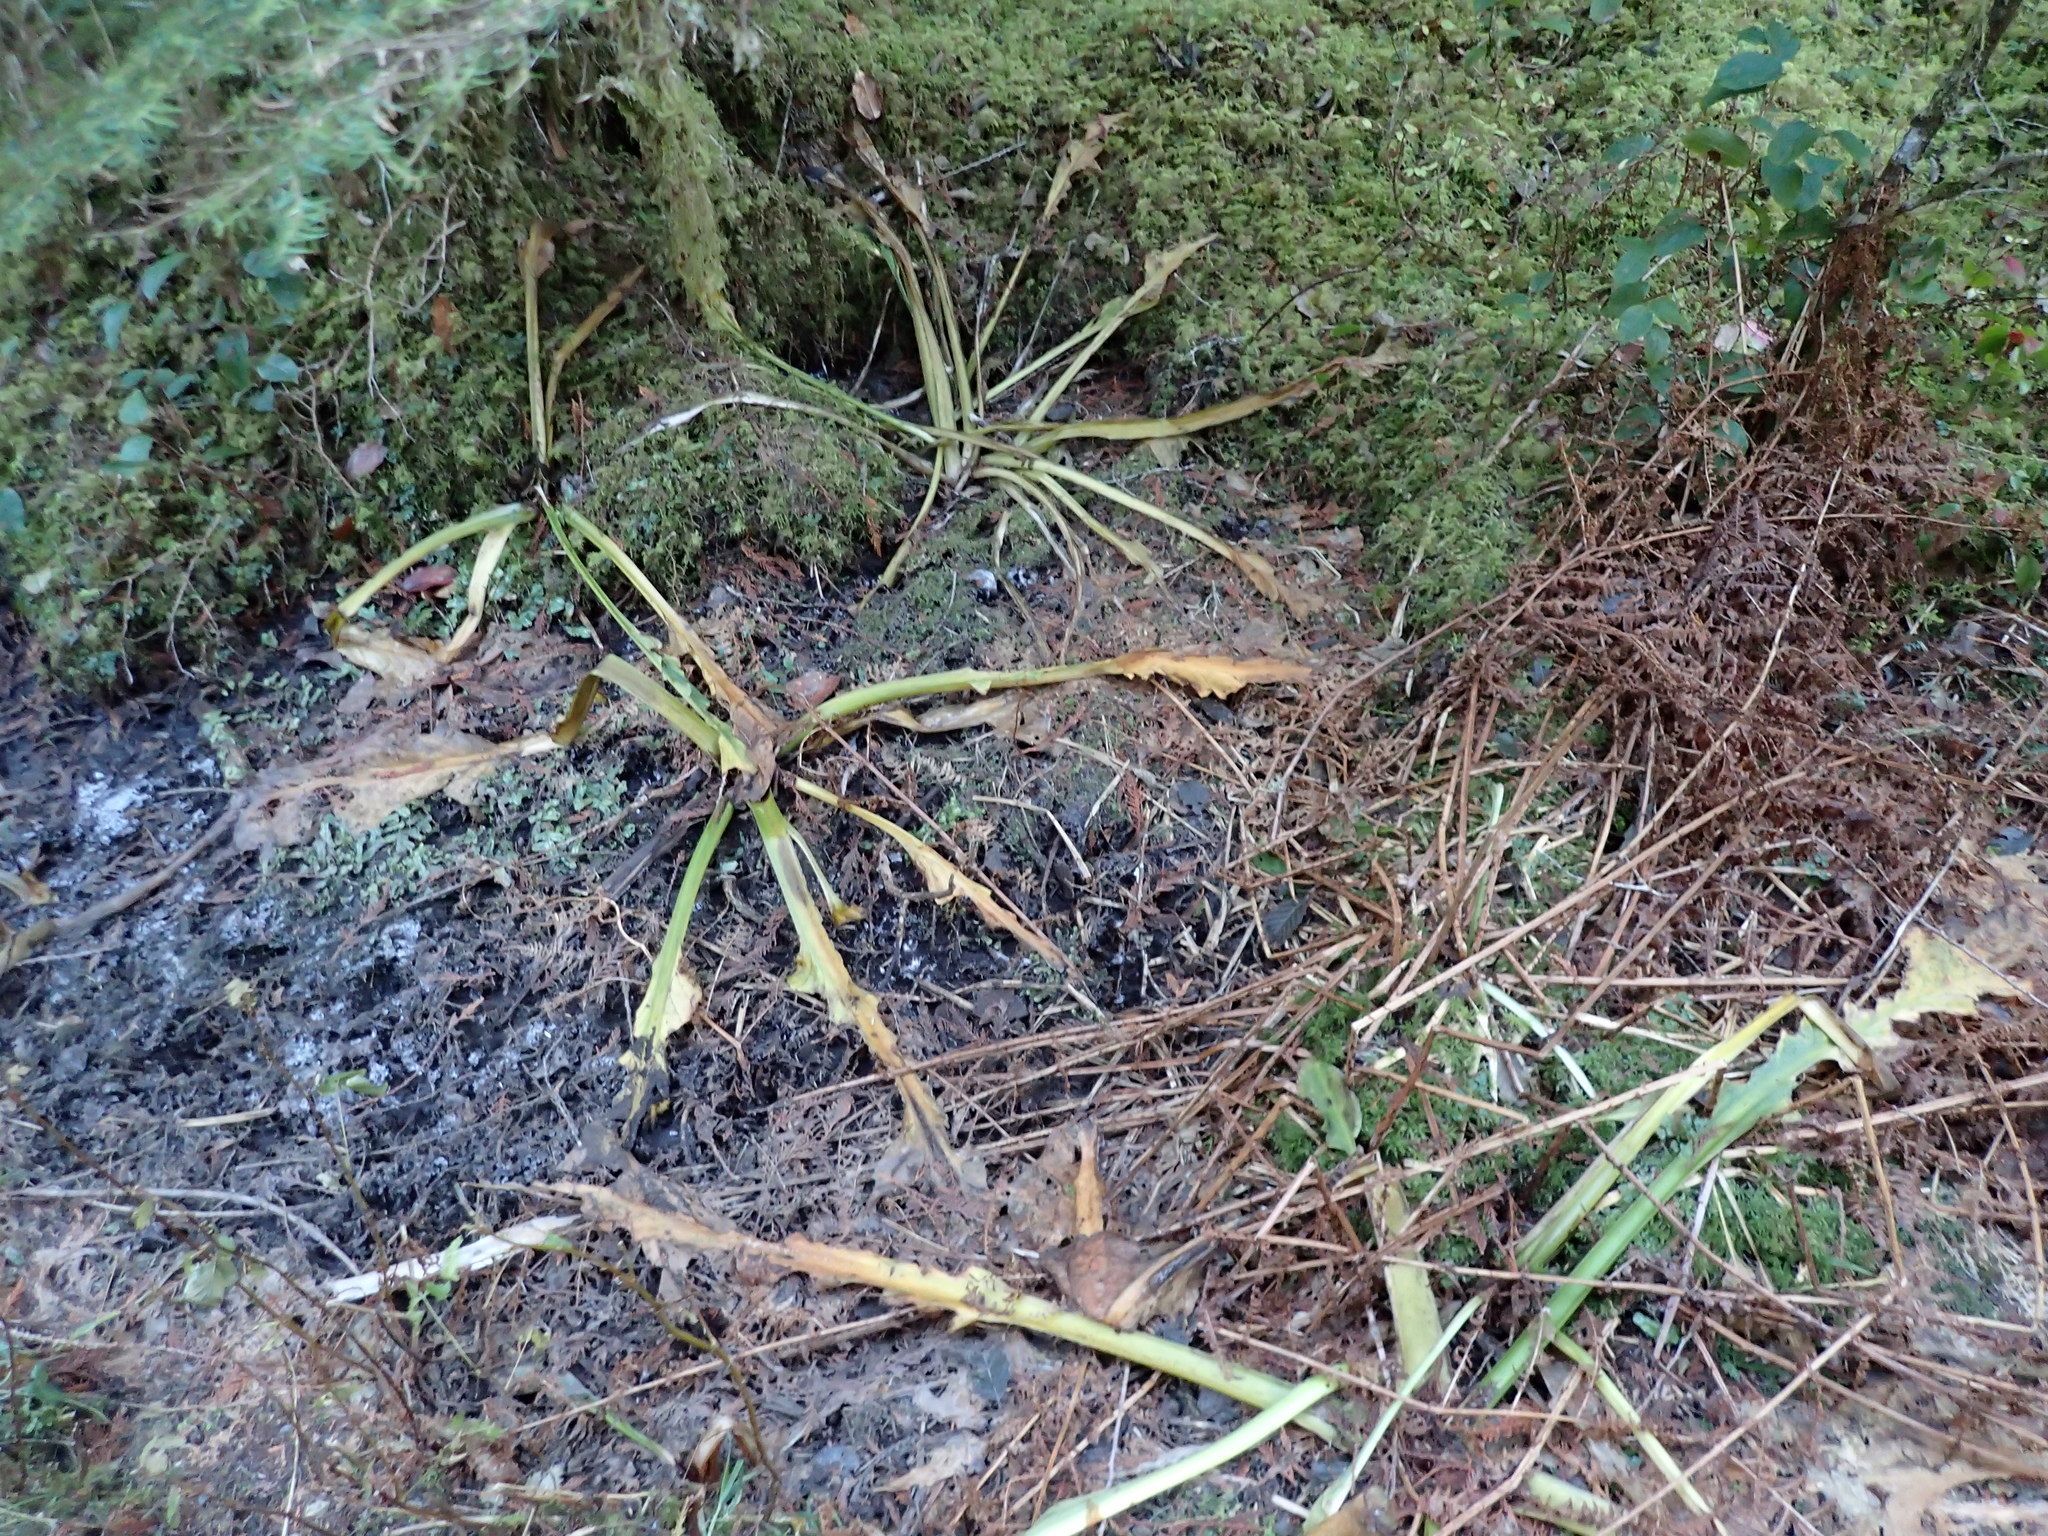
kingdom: Plantae
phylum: Tracheophyta
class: Liliopsida
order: Alismatales
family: Araceae
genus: Lysichiton
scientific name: Lysichiton americanus
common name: American skunk cabbage
